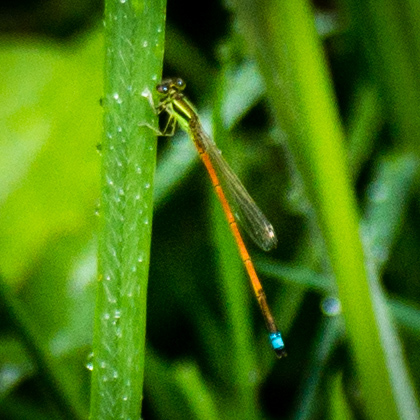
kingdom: Animalia
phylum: Arthropoda
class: Insecta
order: Odonata
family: Coenagrionidae
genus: Ischnura
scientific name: Ischnura aurora
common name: Gossamer damselfly
